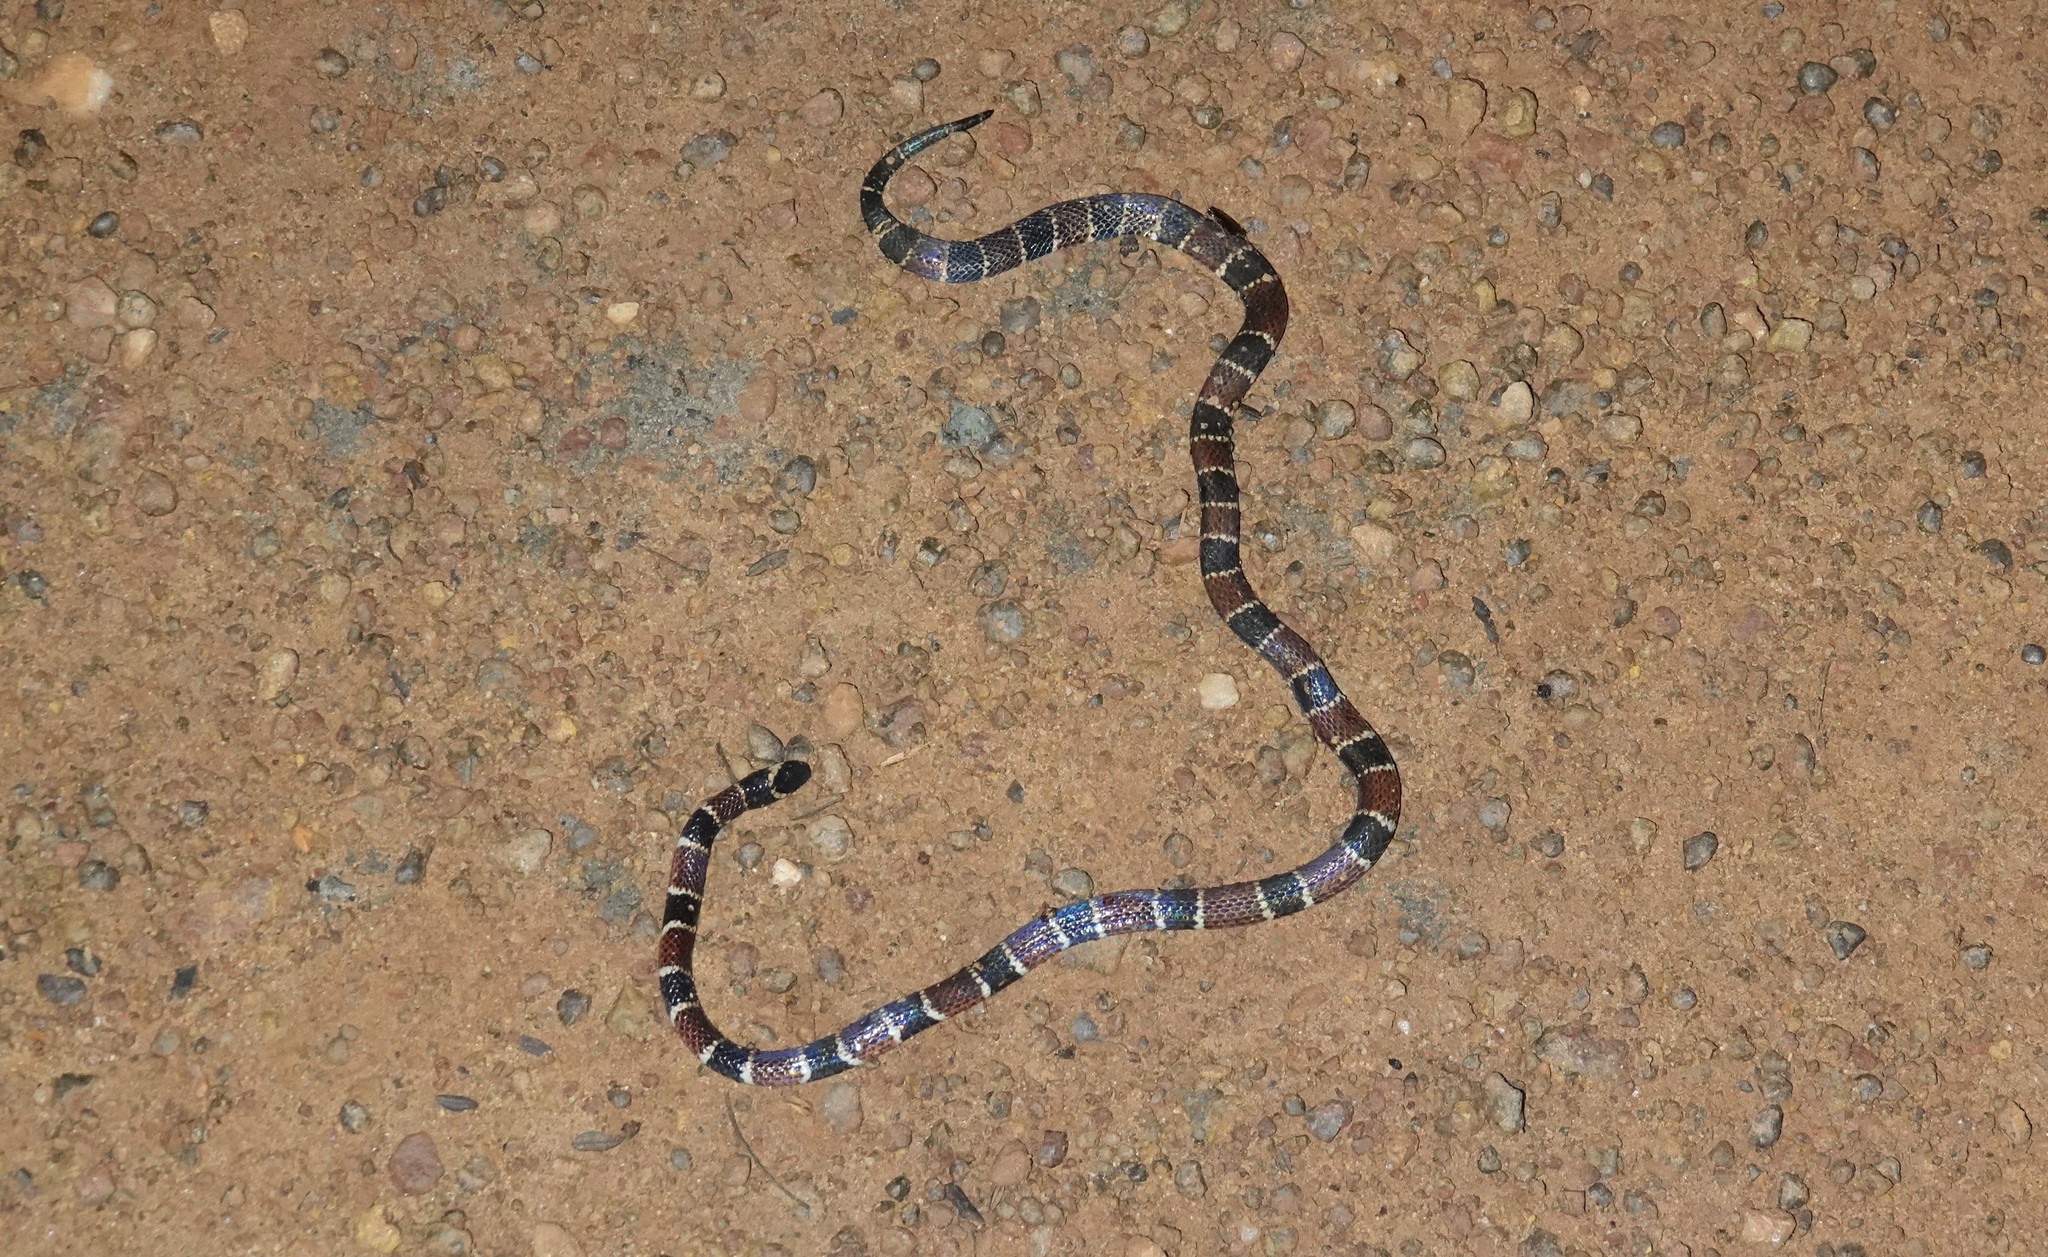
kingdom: Animalia
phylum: Chordata
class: Squamata
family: Elapidae
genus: Micrurus
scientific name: Micrurus psyches
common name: Carib coral snake
